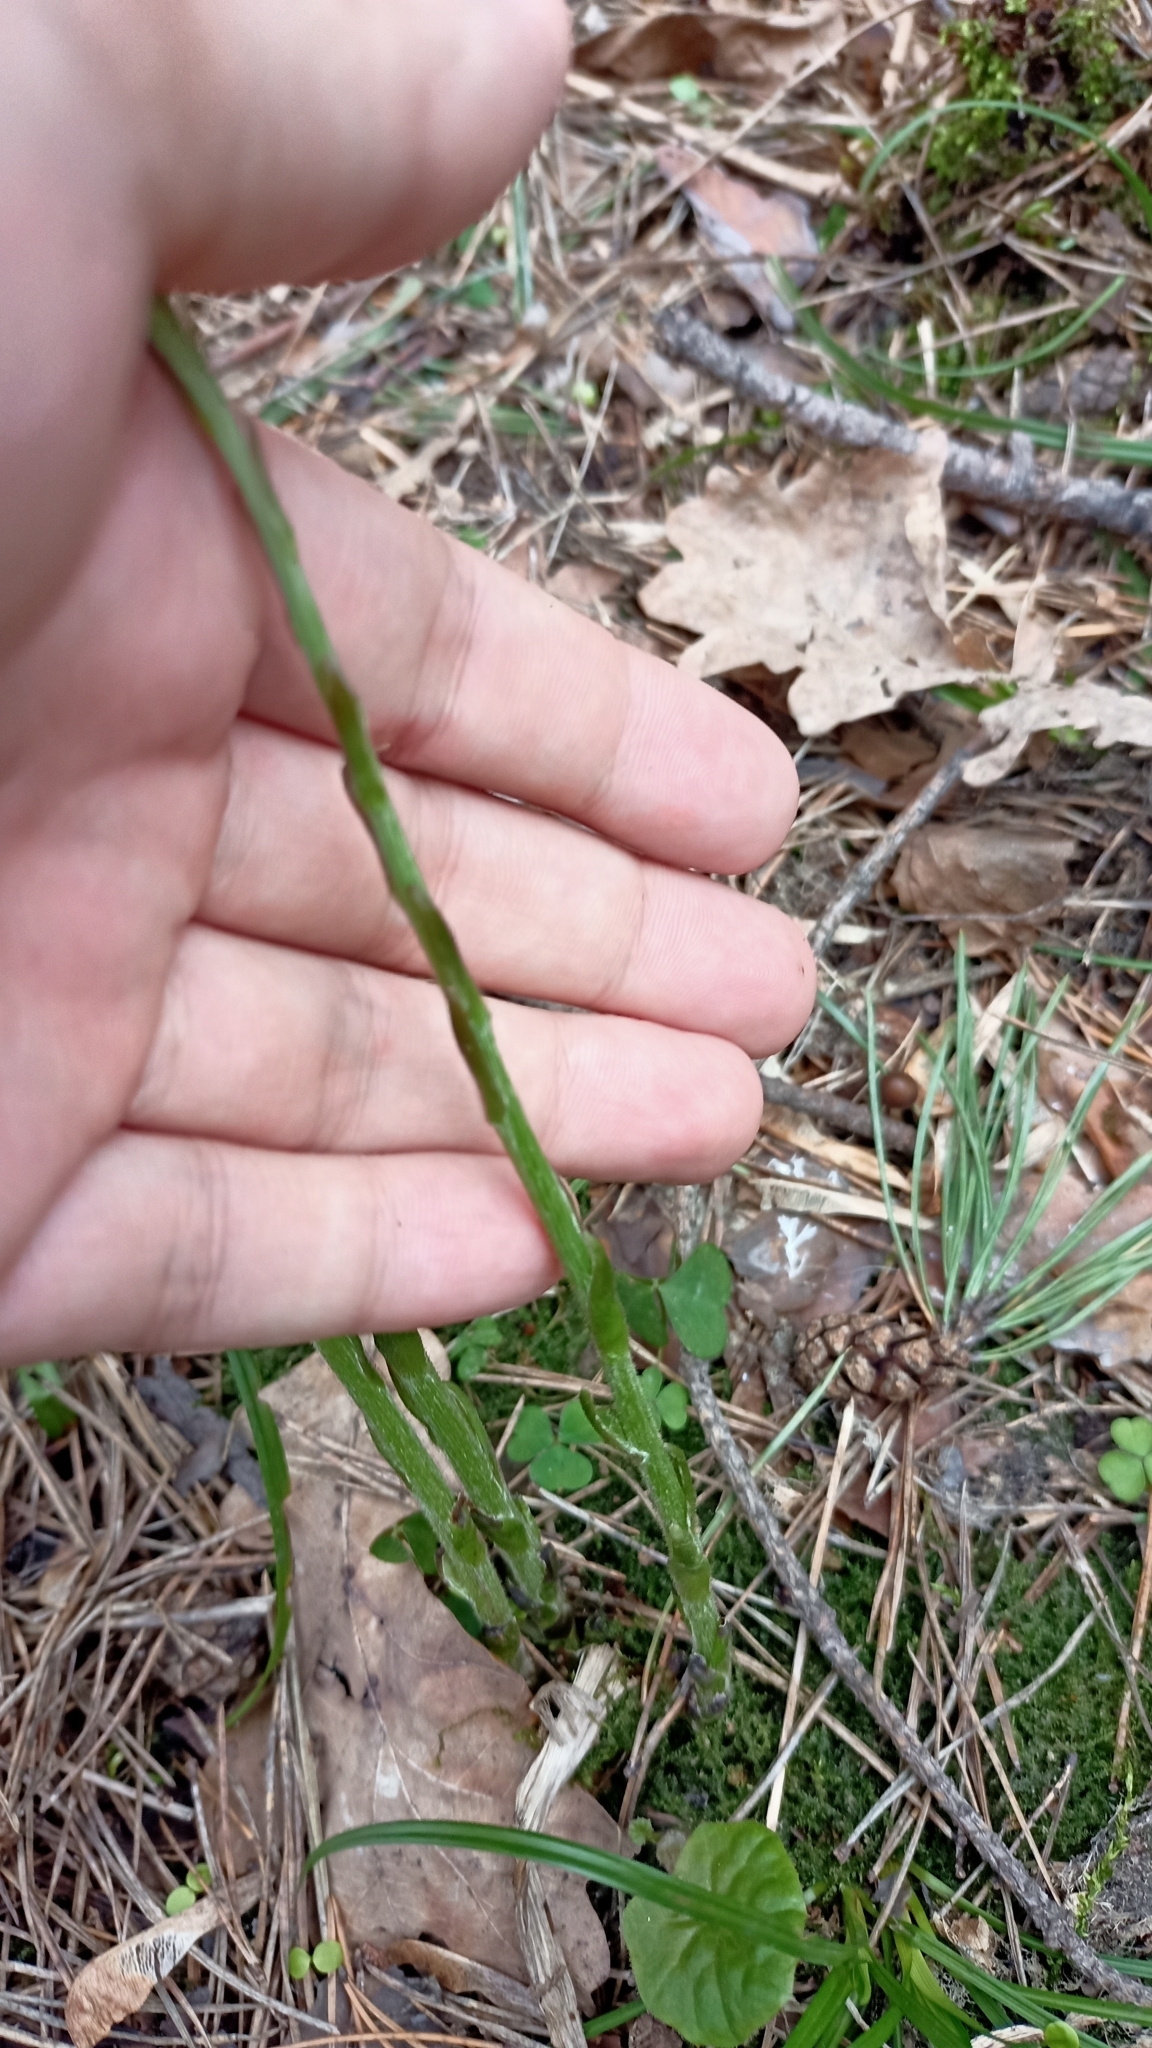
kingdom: Plantae
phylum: Tracheophyta
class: Magnoliopsida
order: Asterales
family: Asteraceae
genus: Tussilago
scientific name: Tussilago farfara
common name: Coltsfoot
